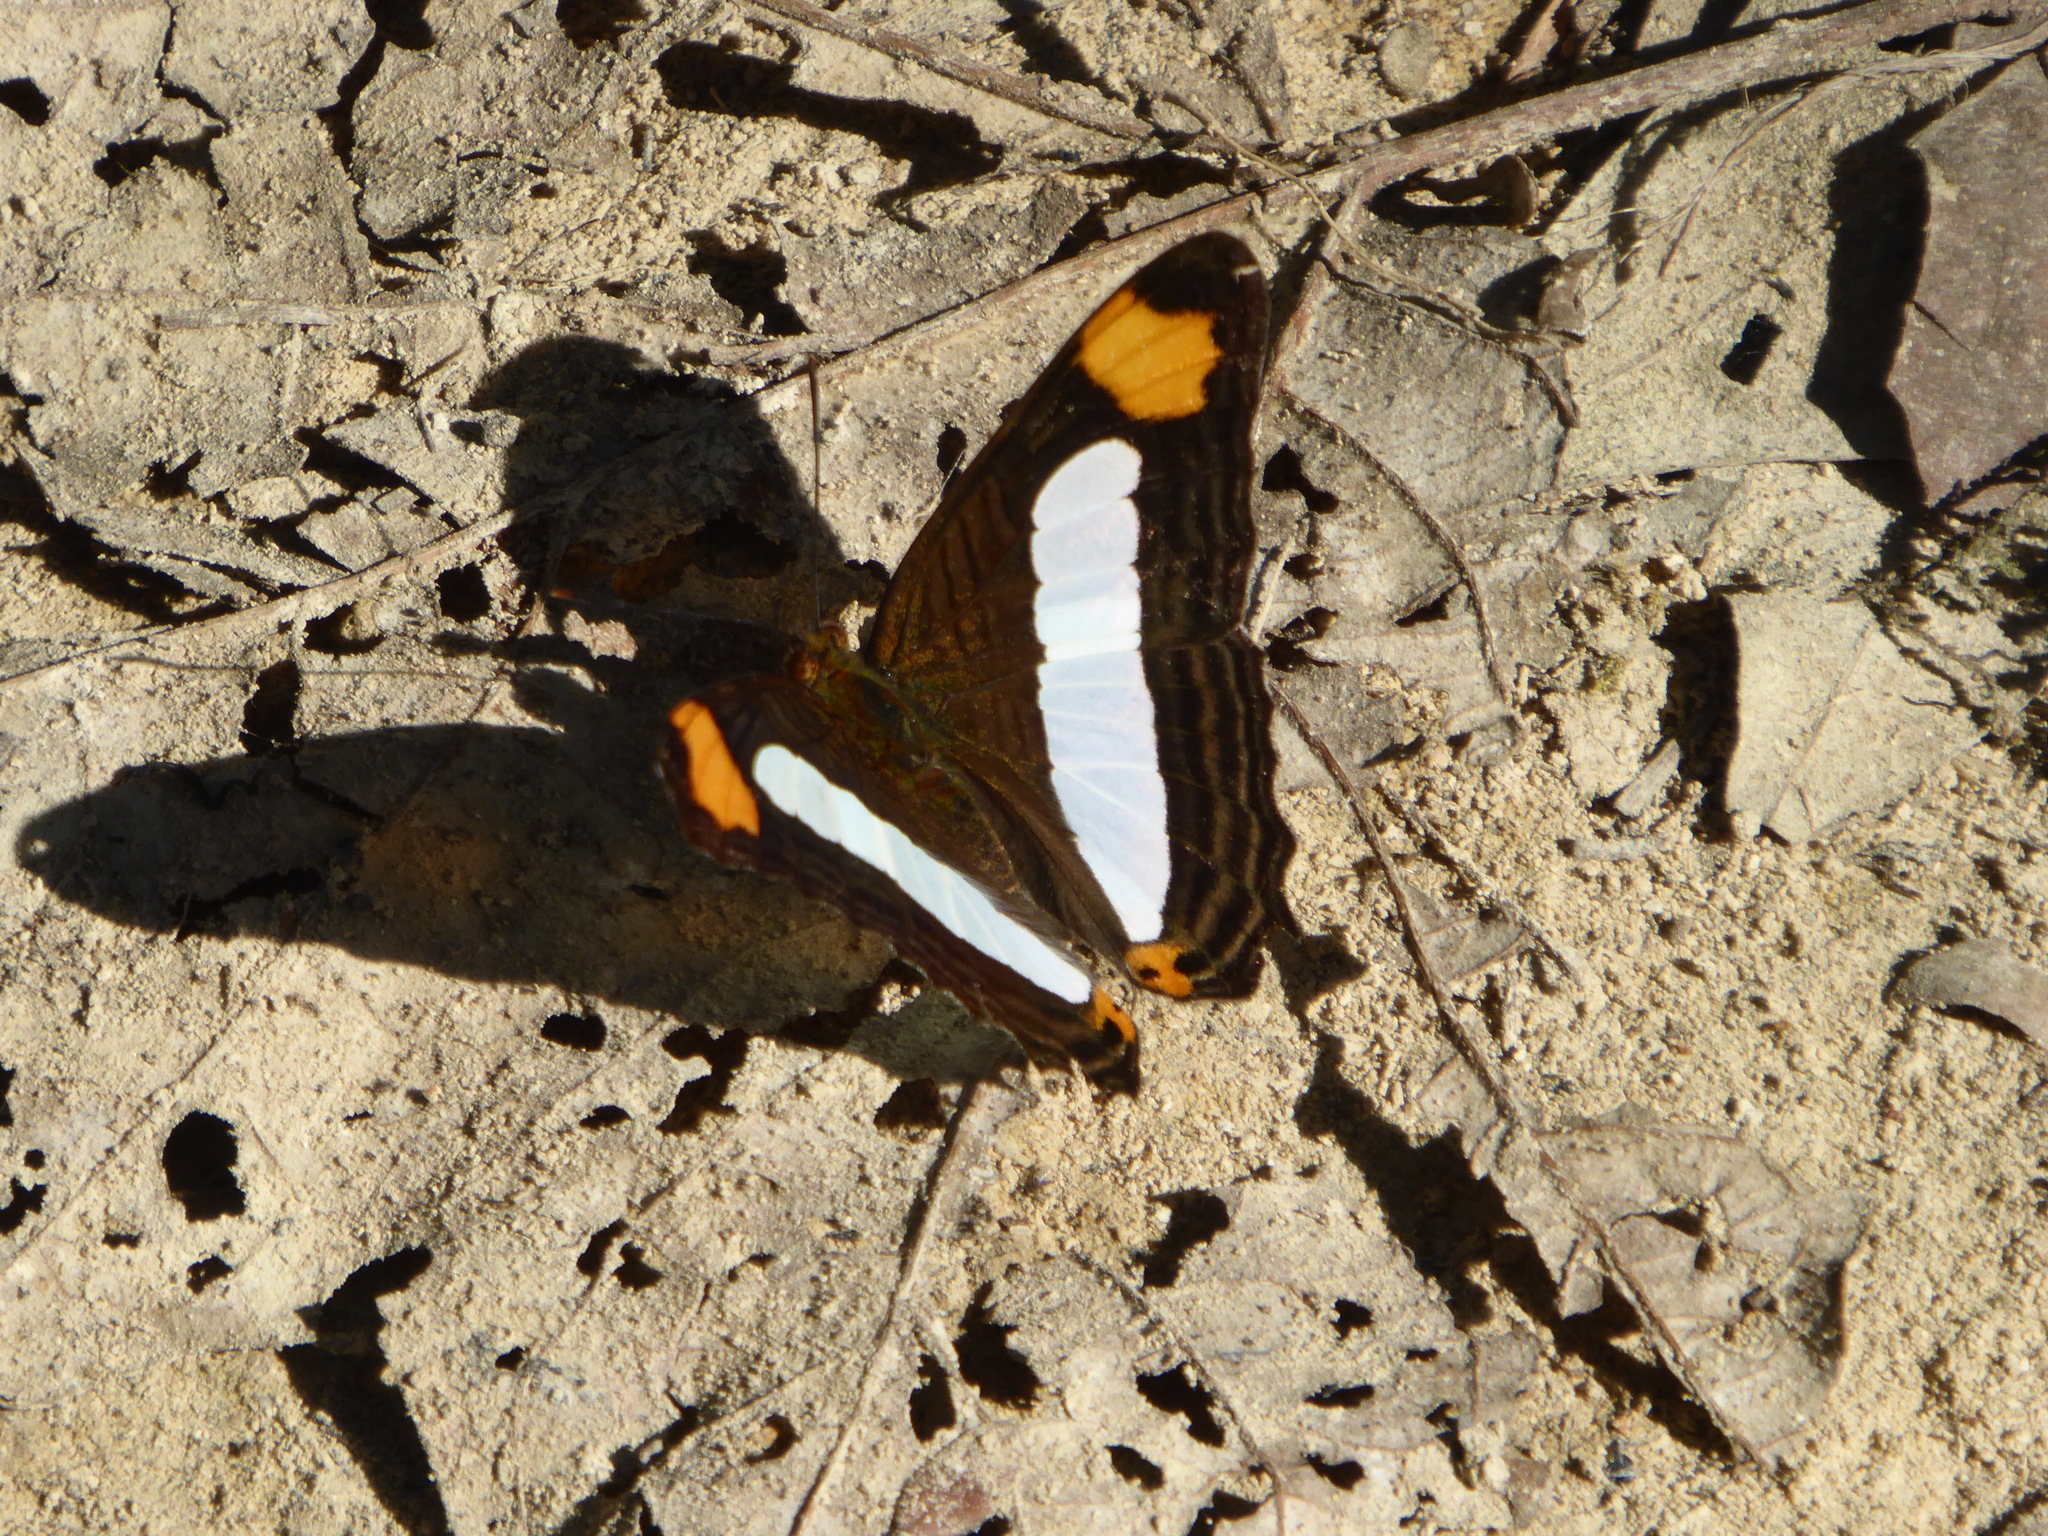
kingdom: Animalia
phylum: Arthropoda
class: Insecta
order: Lepidoptera
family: Nymphalidae
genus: Limenitis
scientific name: Limenitis iphiclus
